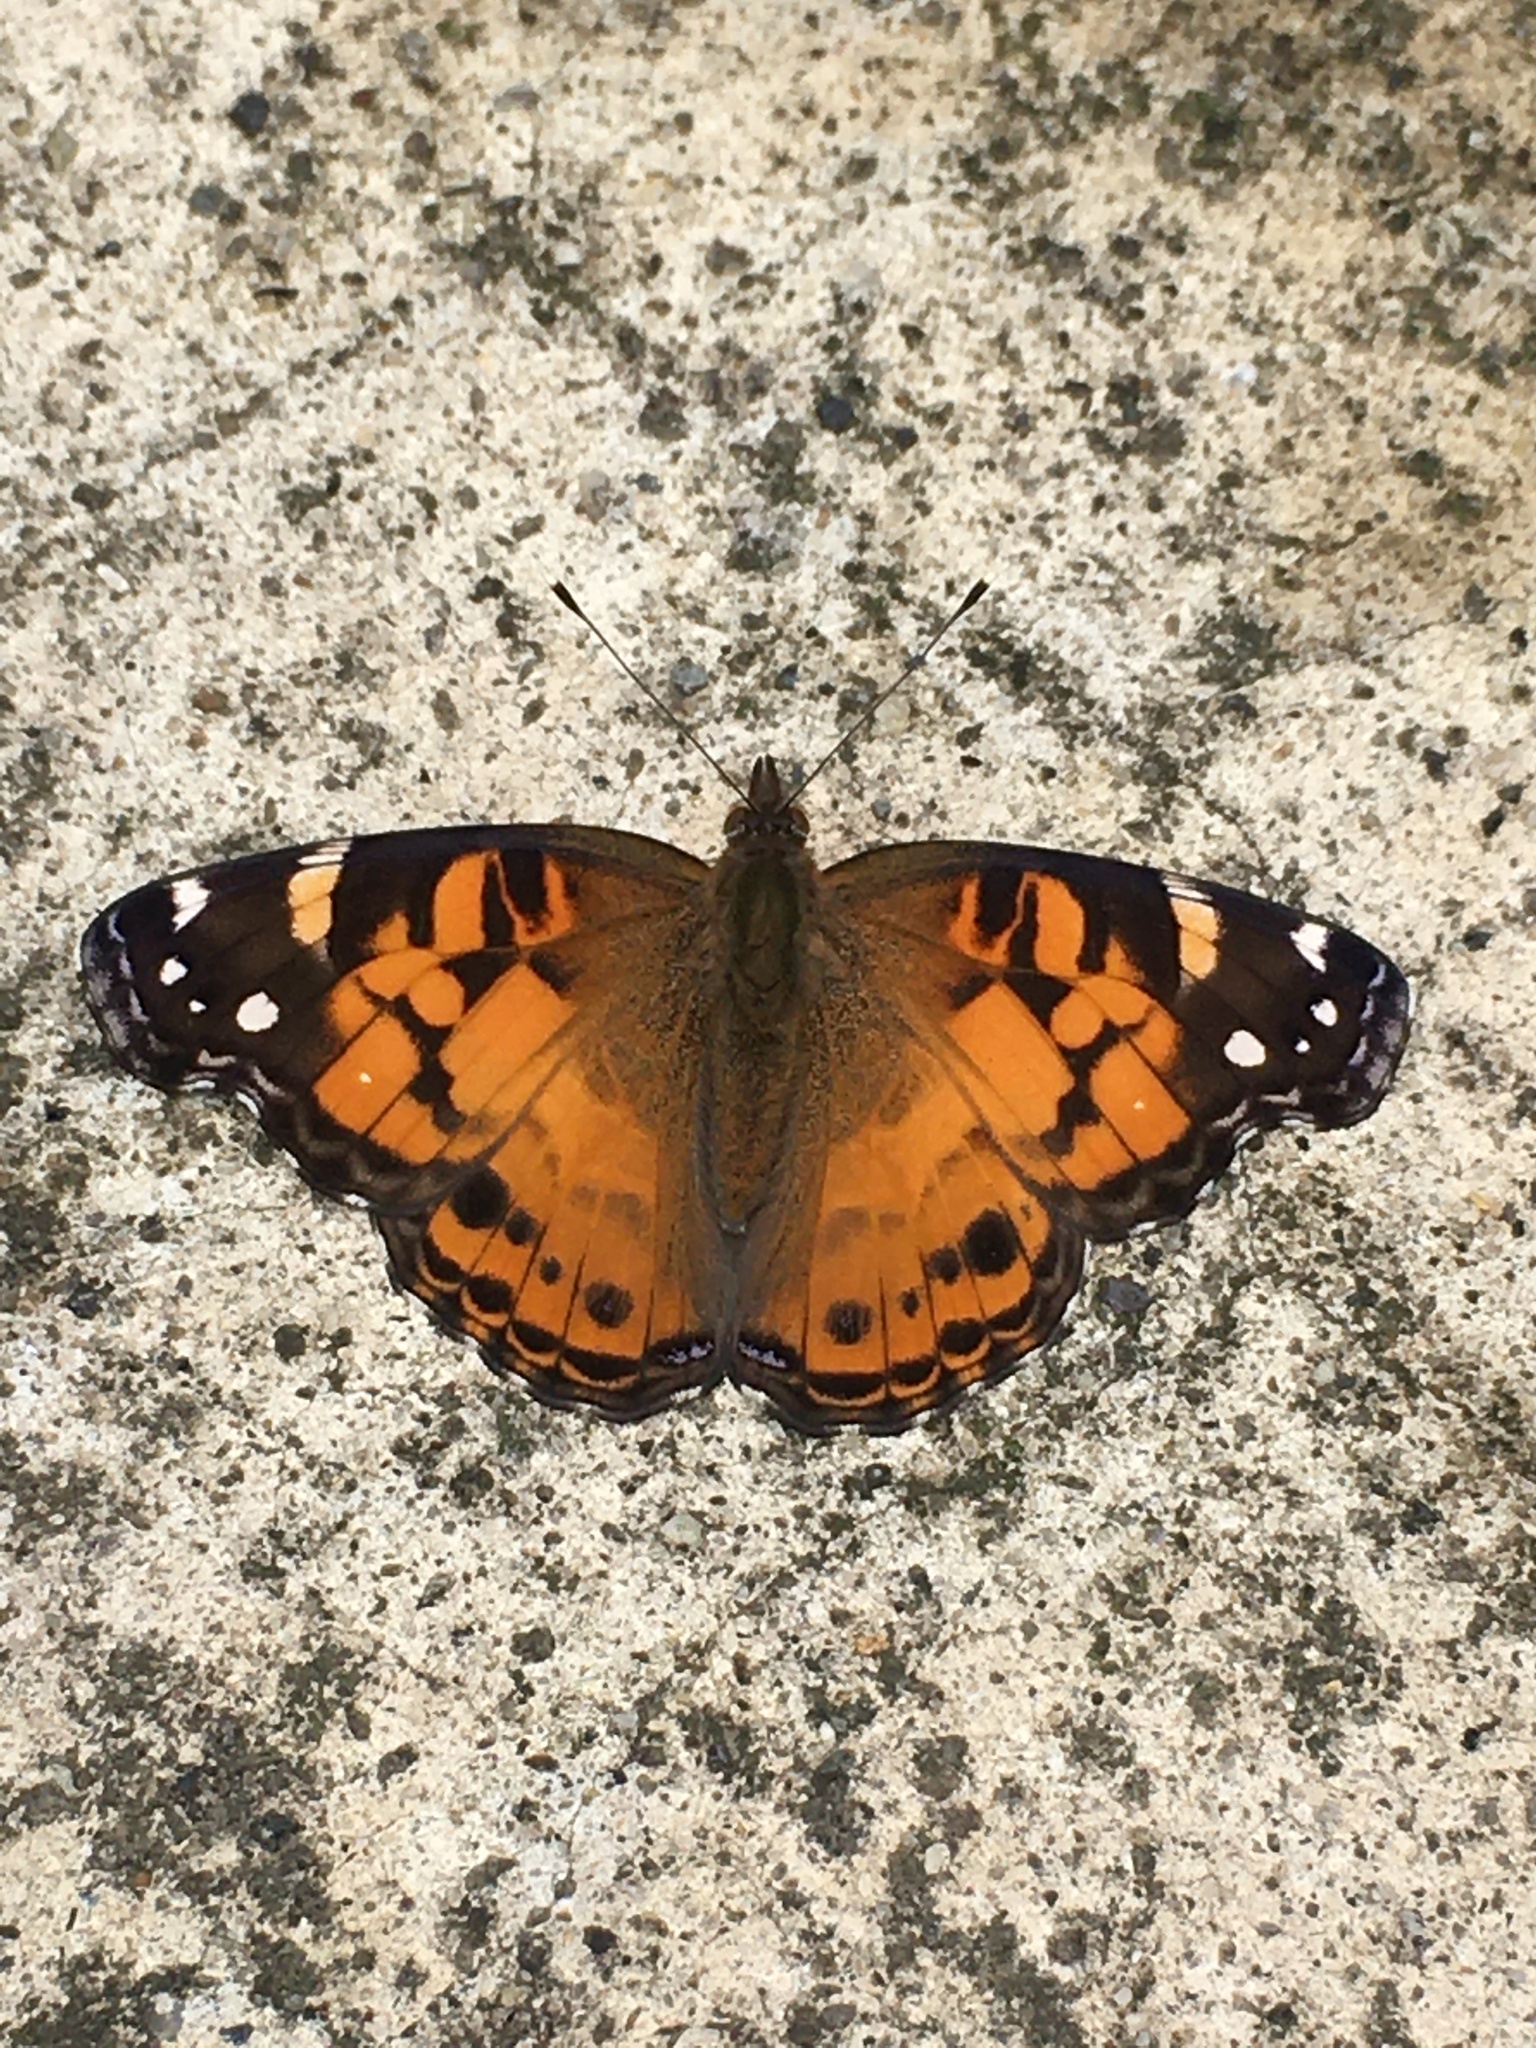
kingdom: Animalia
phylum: Arthropoda
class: Insecta
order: Lepidoptera
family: Nymphalidae
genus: Vanessa
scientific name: Vanessa virginiensis
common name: American lady
